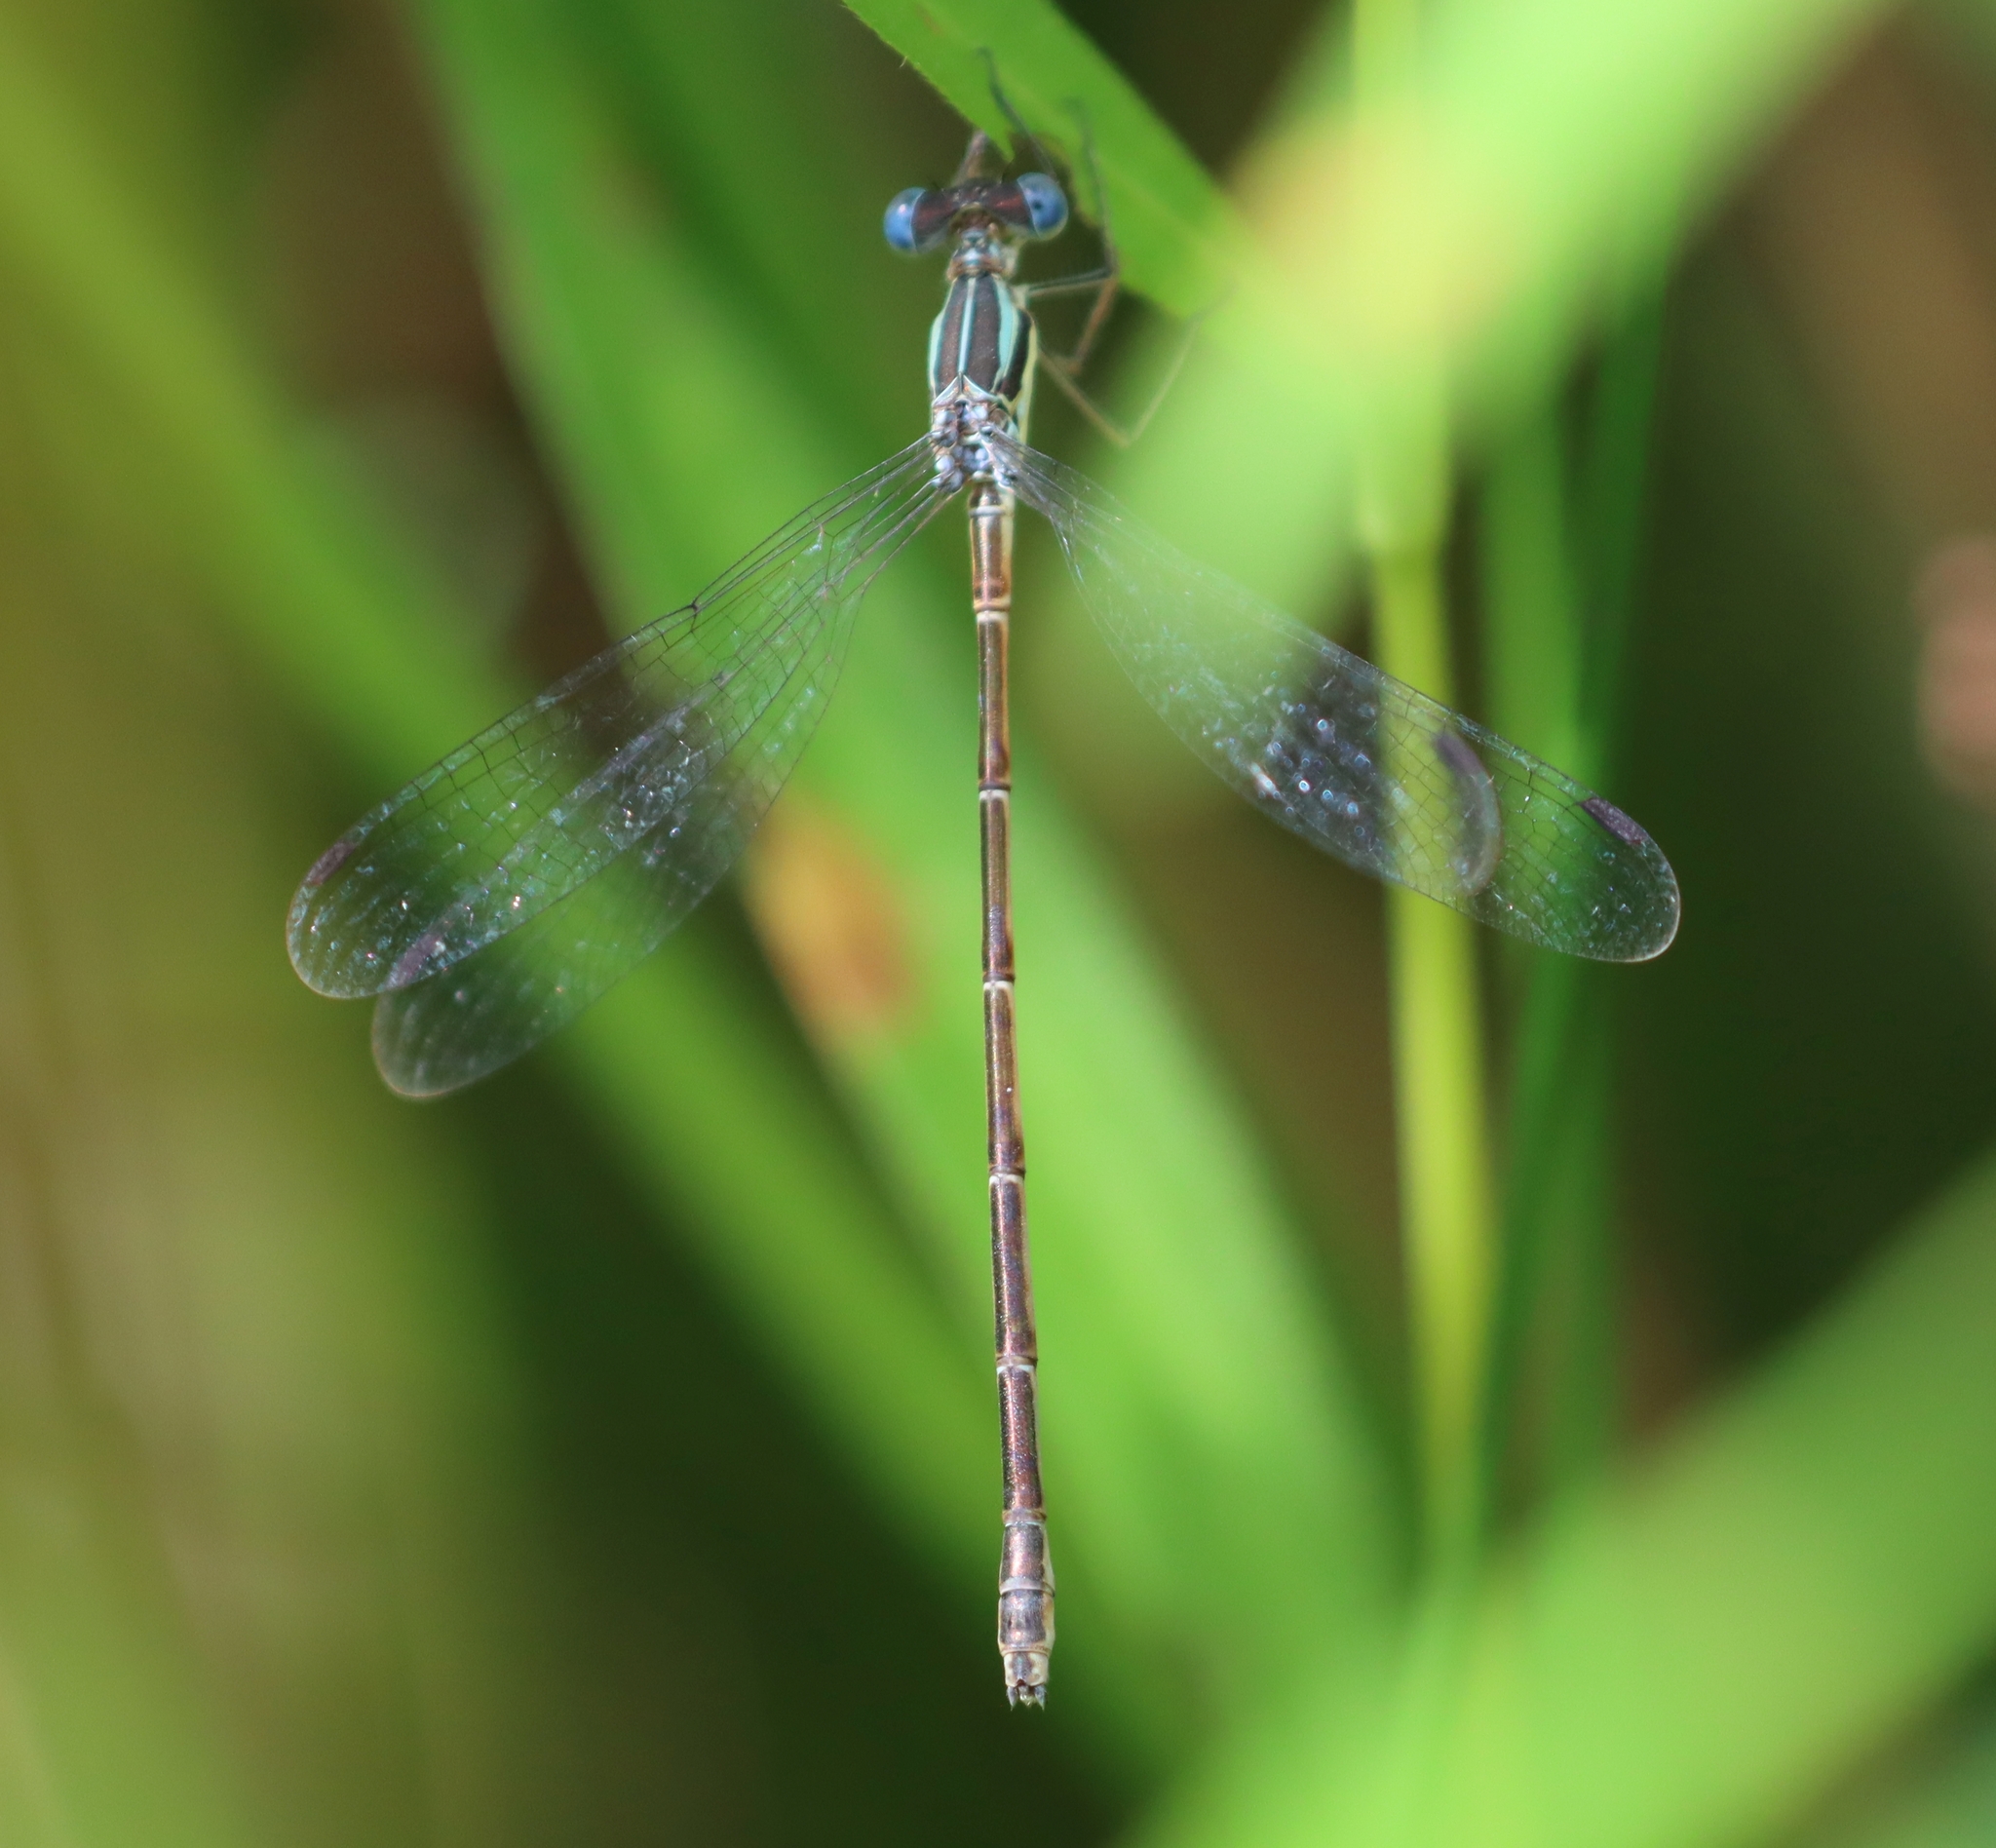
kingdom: Animalia
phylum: Arthropoda
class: Insecta
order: Odonata
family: Lestidae
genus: Lestes
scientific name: Lestes rectangularis
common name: Slender spreadwing
